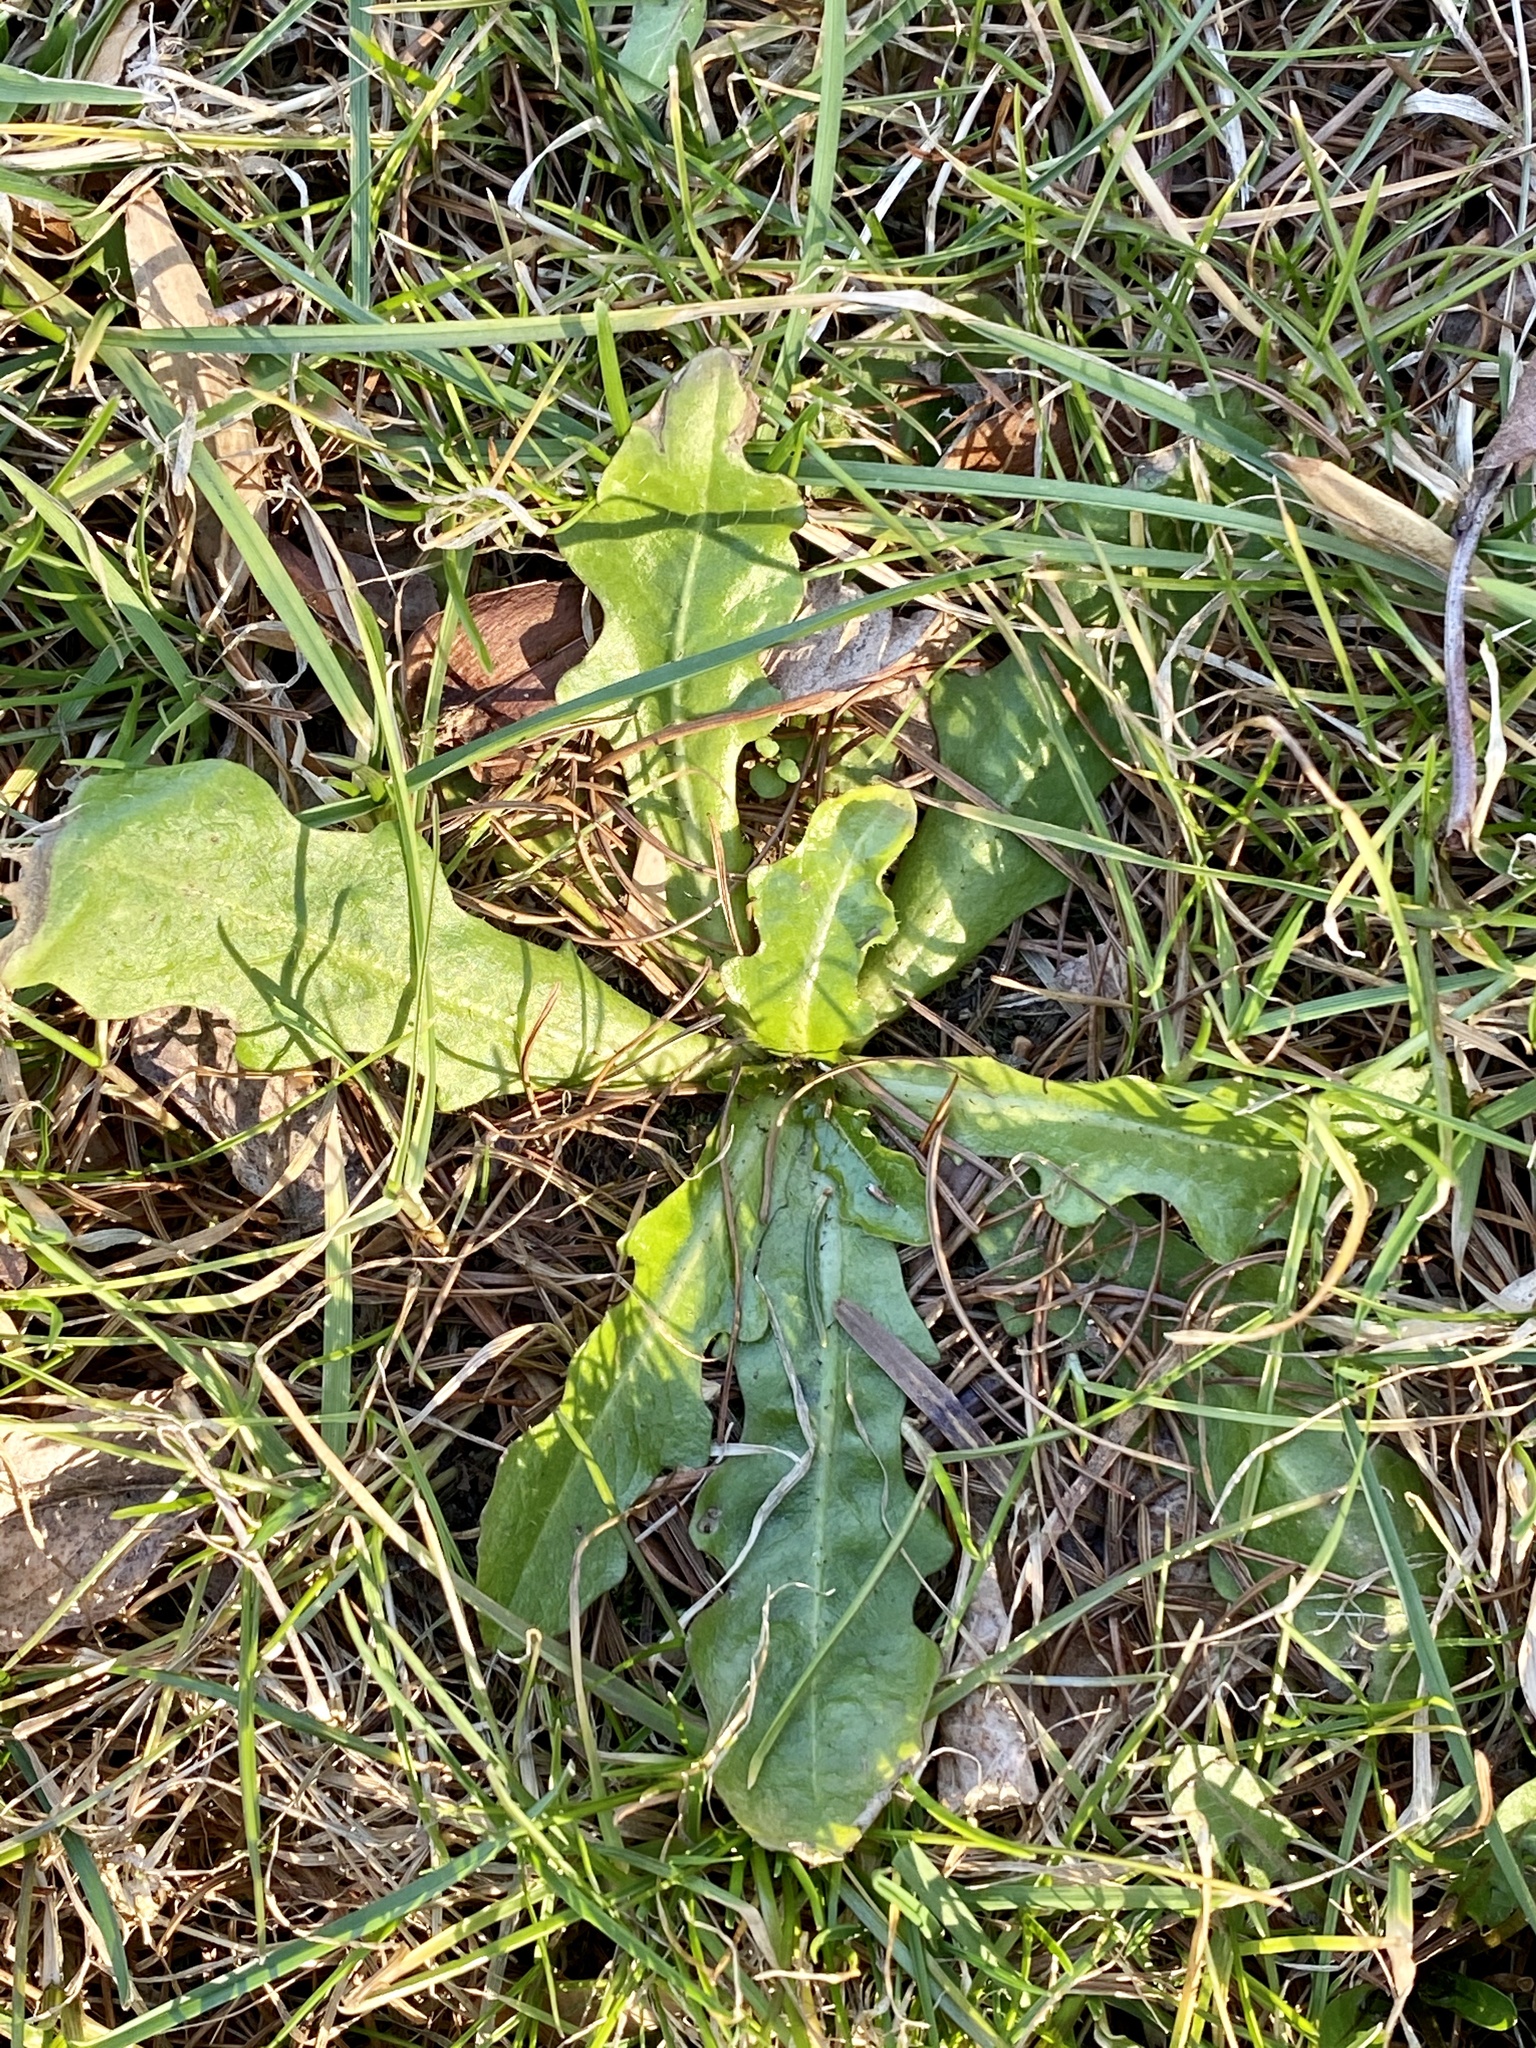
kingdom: Plantae
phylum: Tracheophyta
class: Magnoliopsida
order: Asterales
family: Asteraceae
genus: Hypochaeris
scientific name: Hypochaeris radicata
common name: Flatweed
